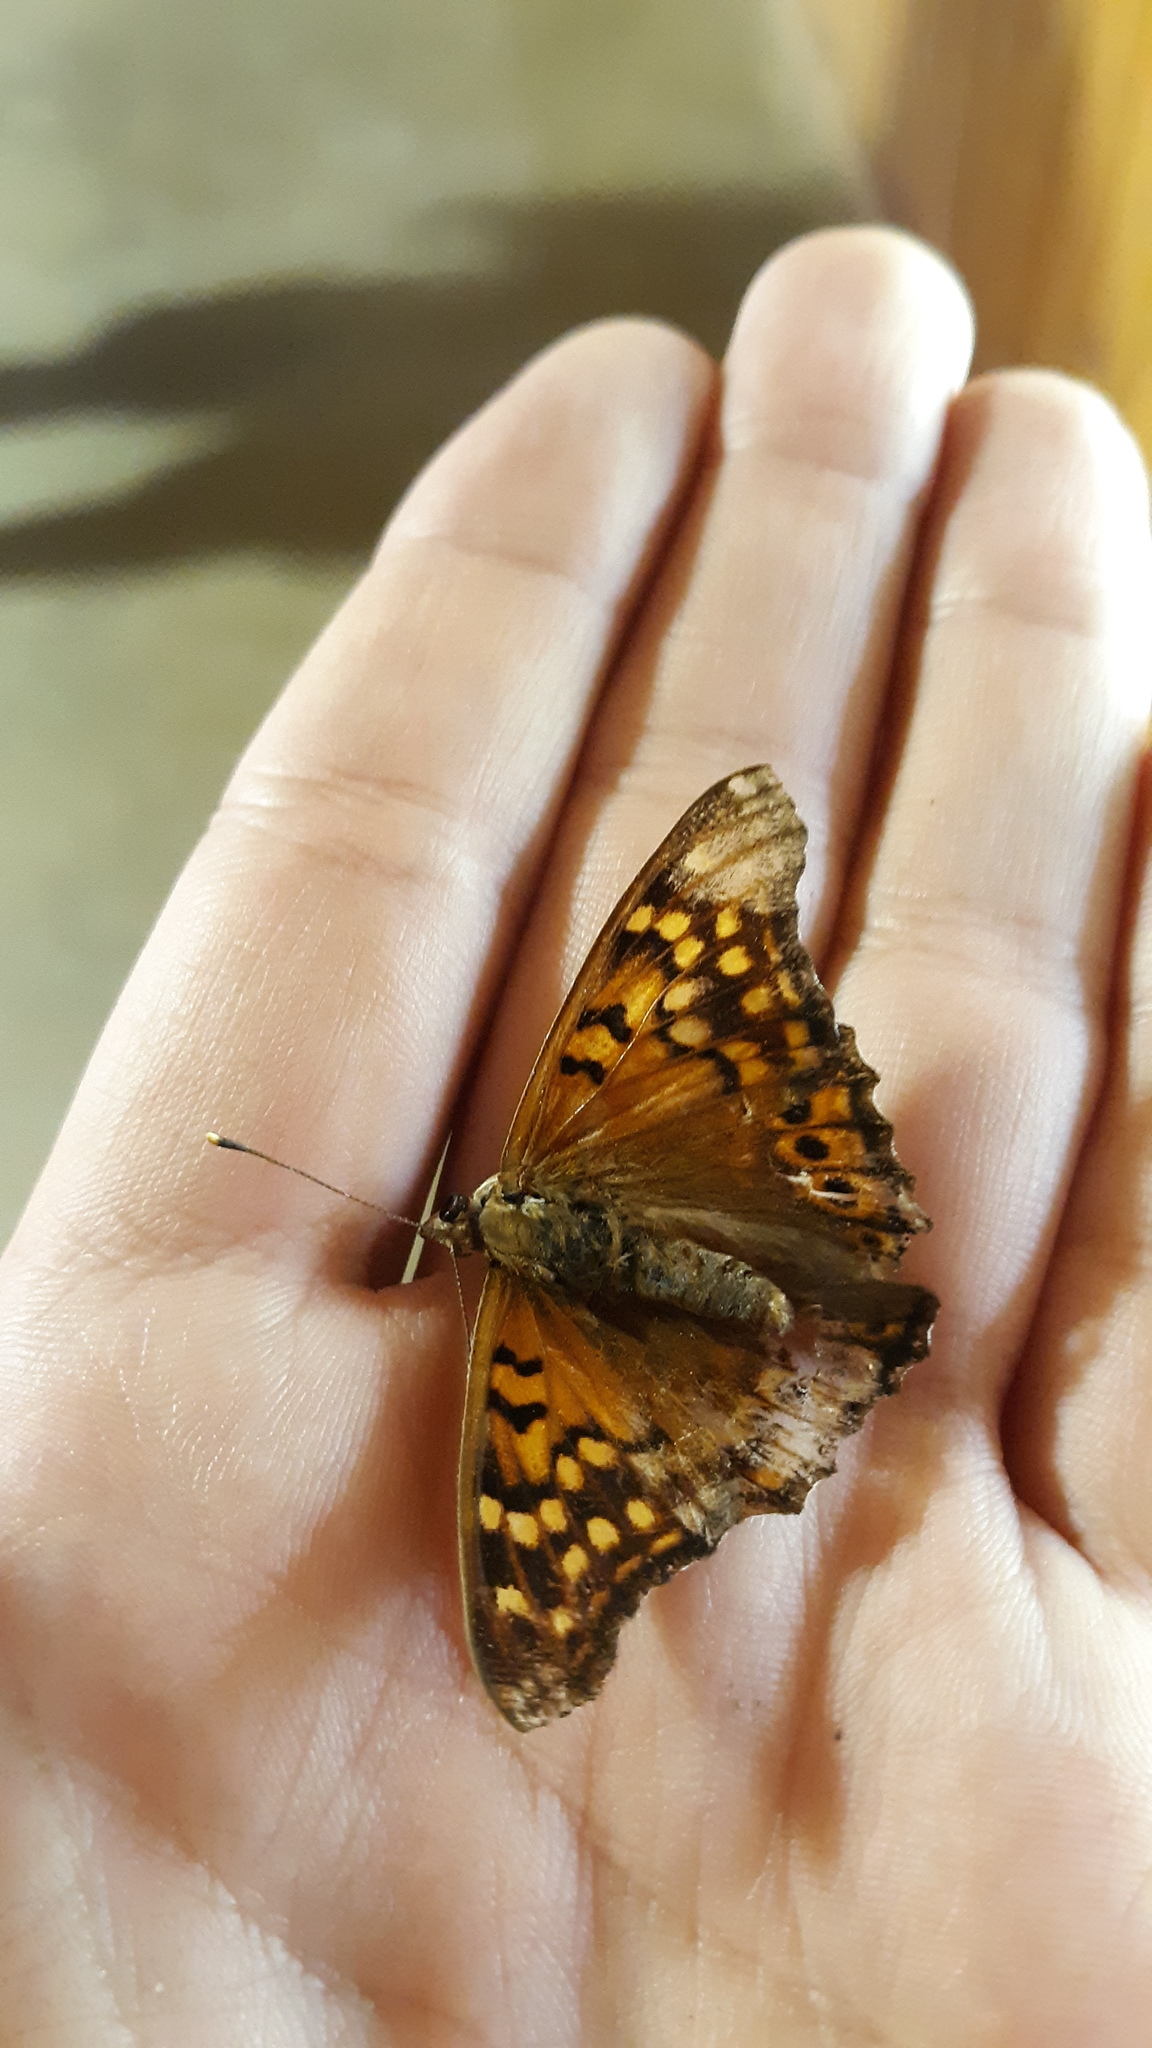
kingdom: Animalia
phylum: Arthropoda
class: Insecta
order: Lepidoptera
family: Nymphalidae
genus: Asterocampa
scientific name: Asterocampa clyton
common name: Tawny emperor
